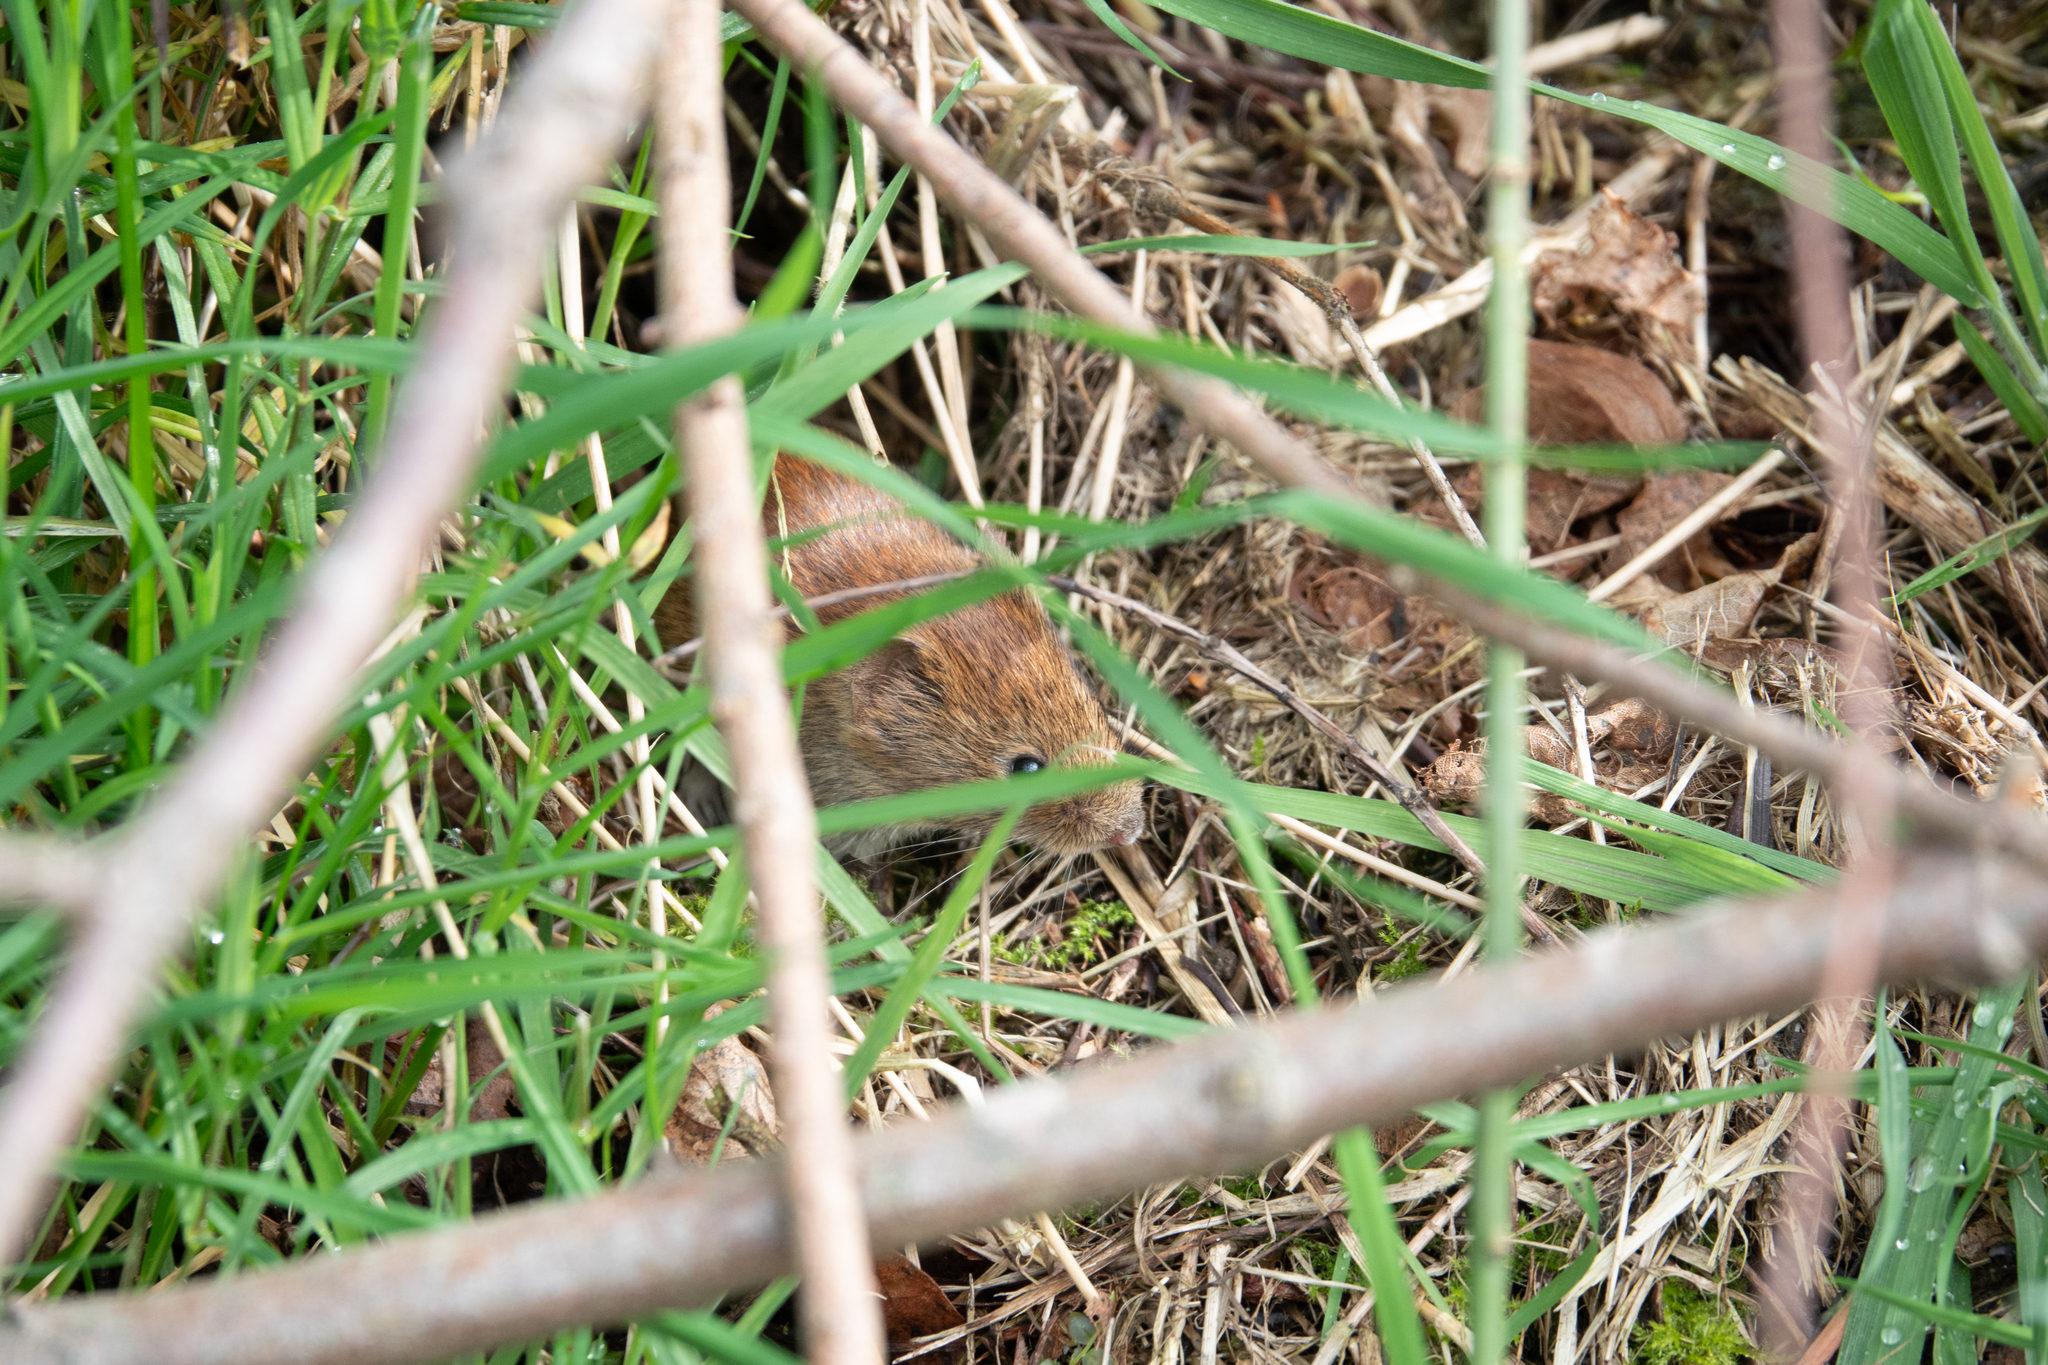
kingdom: Animalia
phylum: Chordata
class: Mammalia
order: Rodentia
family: Cricetidae
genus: Myodes
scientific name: Myodes glareolus
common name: Bank vole
